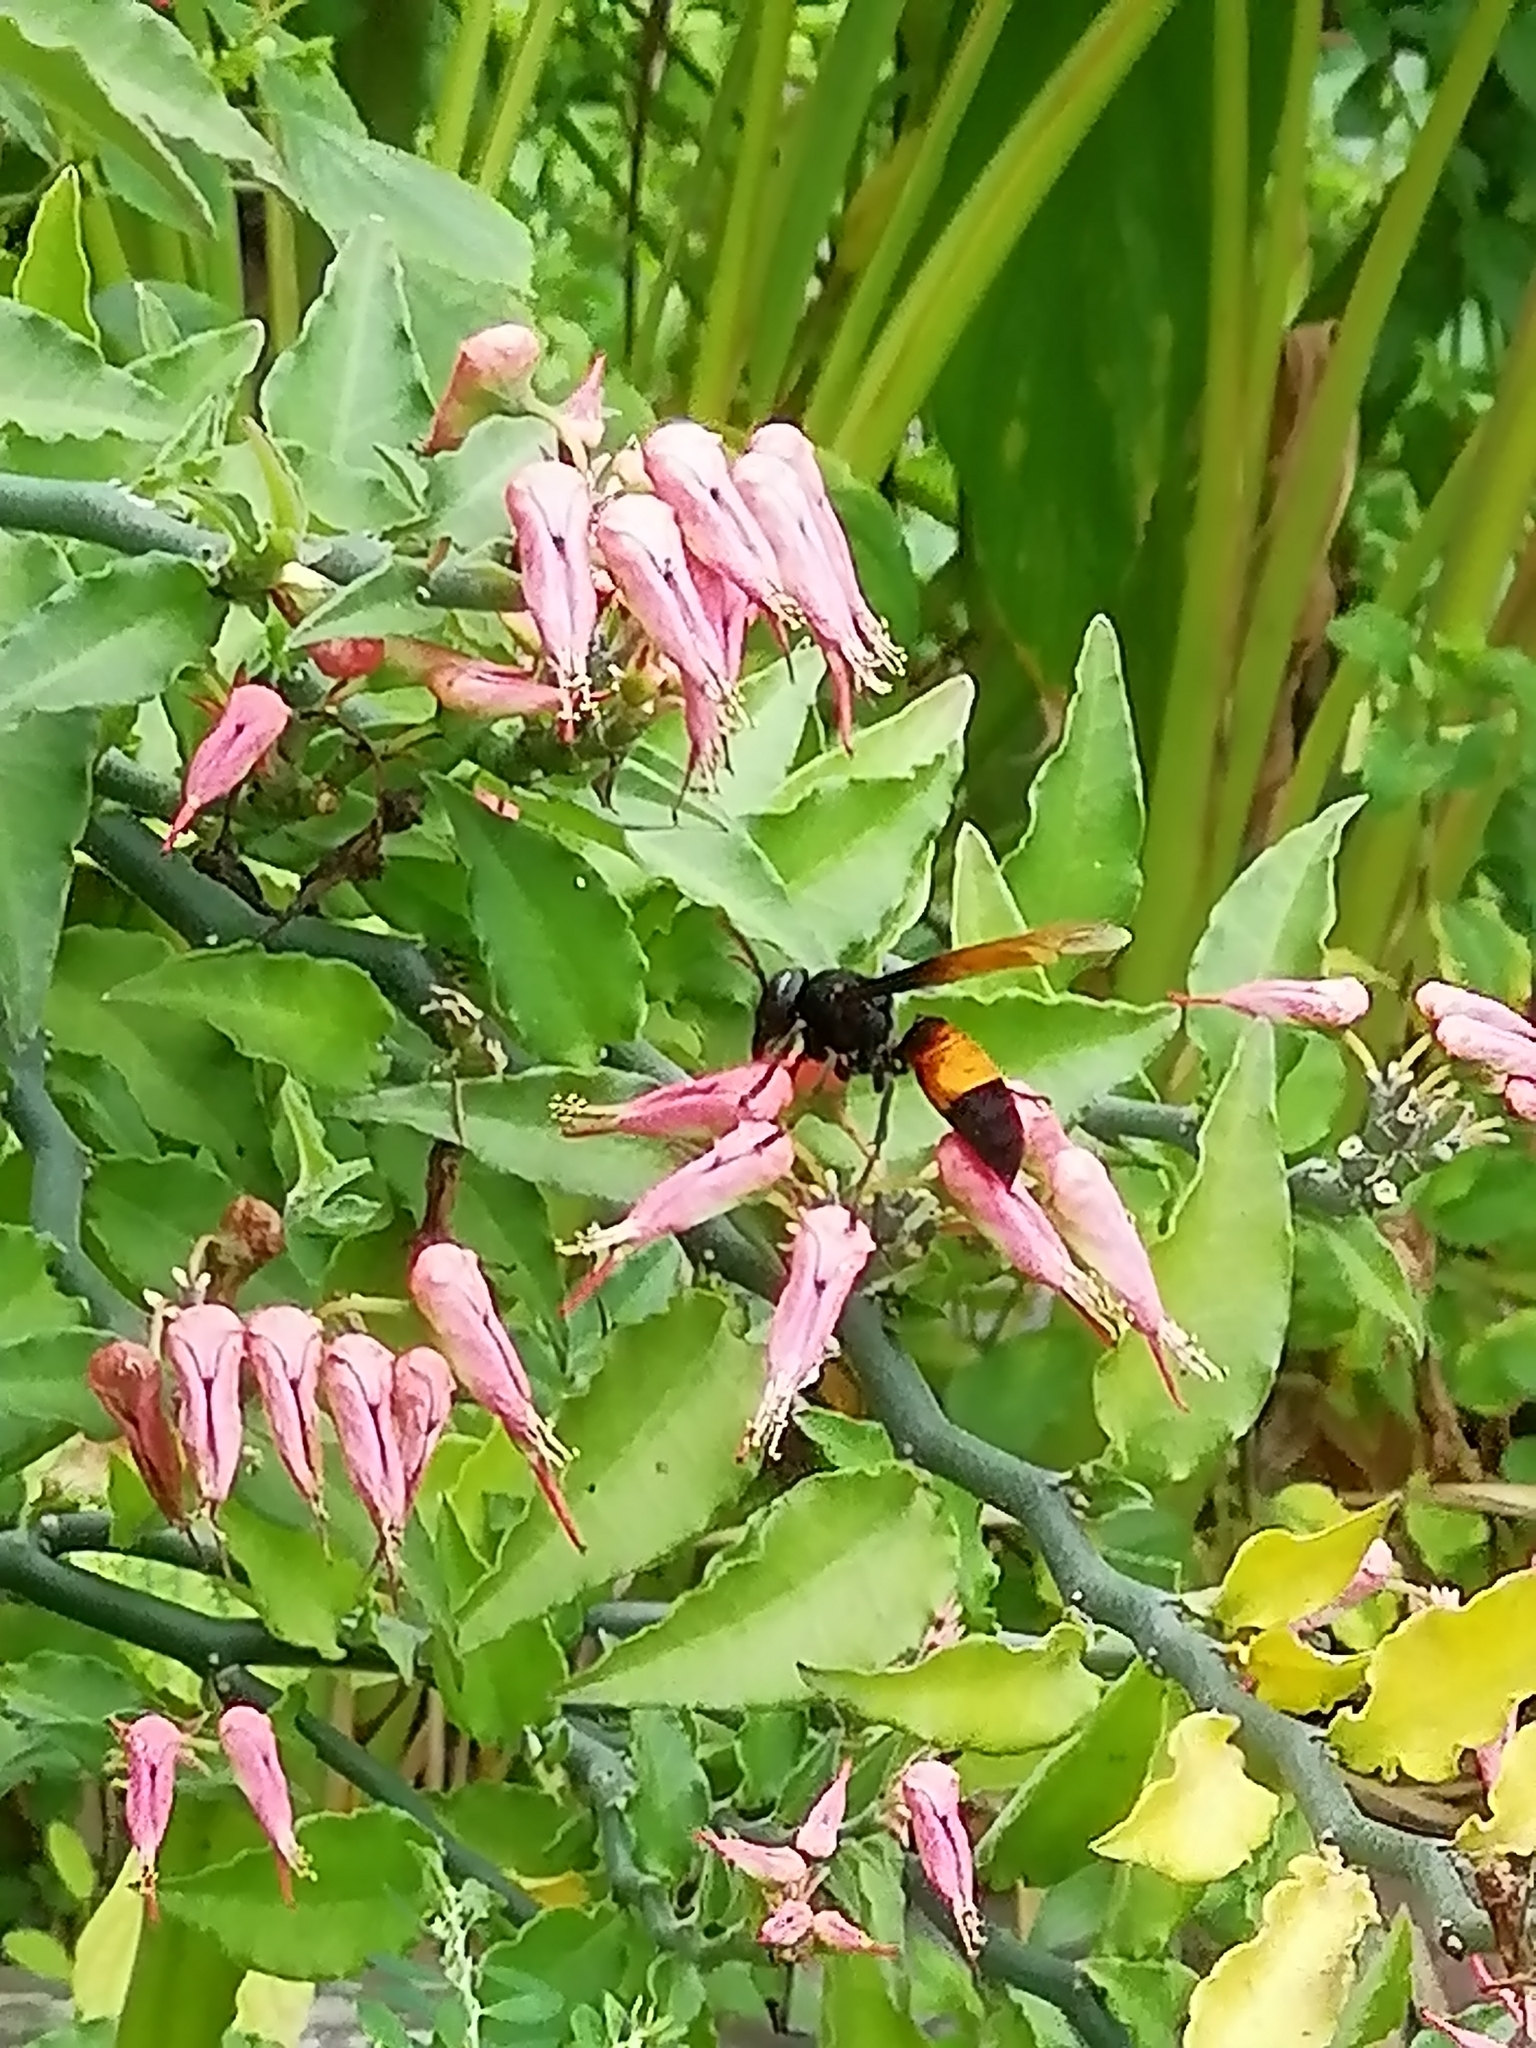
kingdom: Animalia
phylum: Arthropoda
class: Insecta
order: Hymenoptera
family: Vespidae
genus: Vespa
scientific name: Vespa affinis
